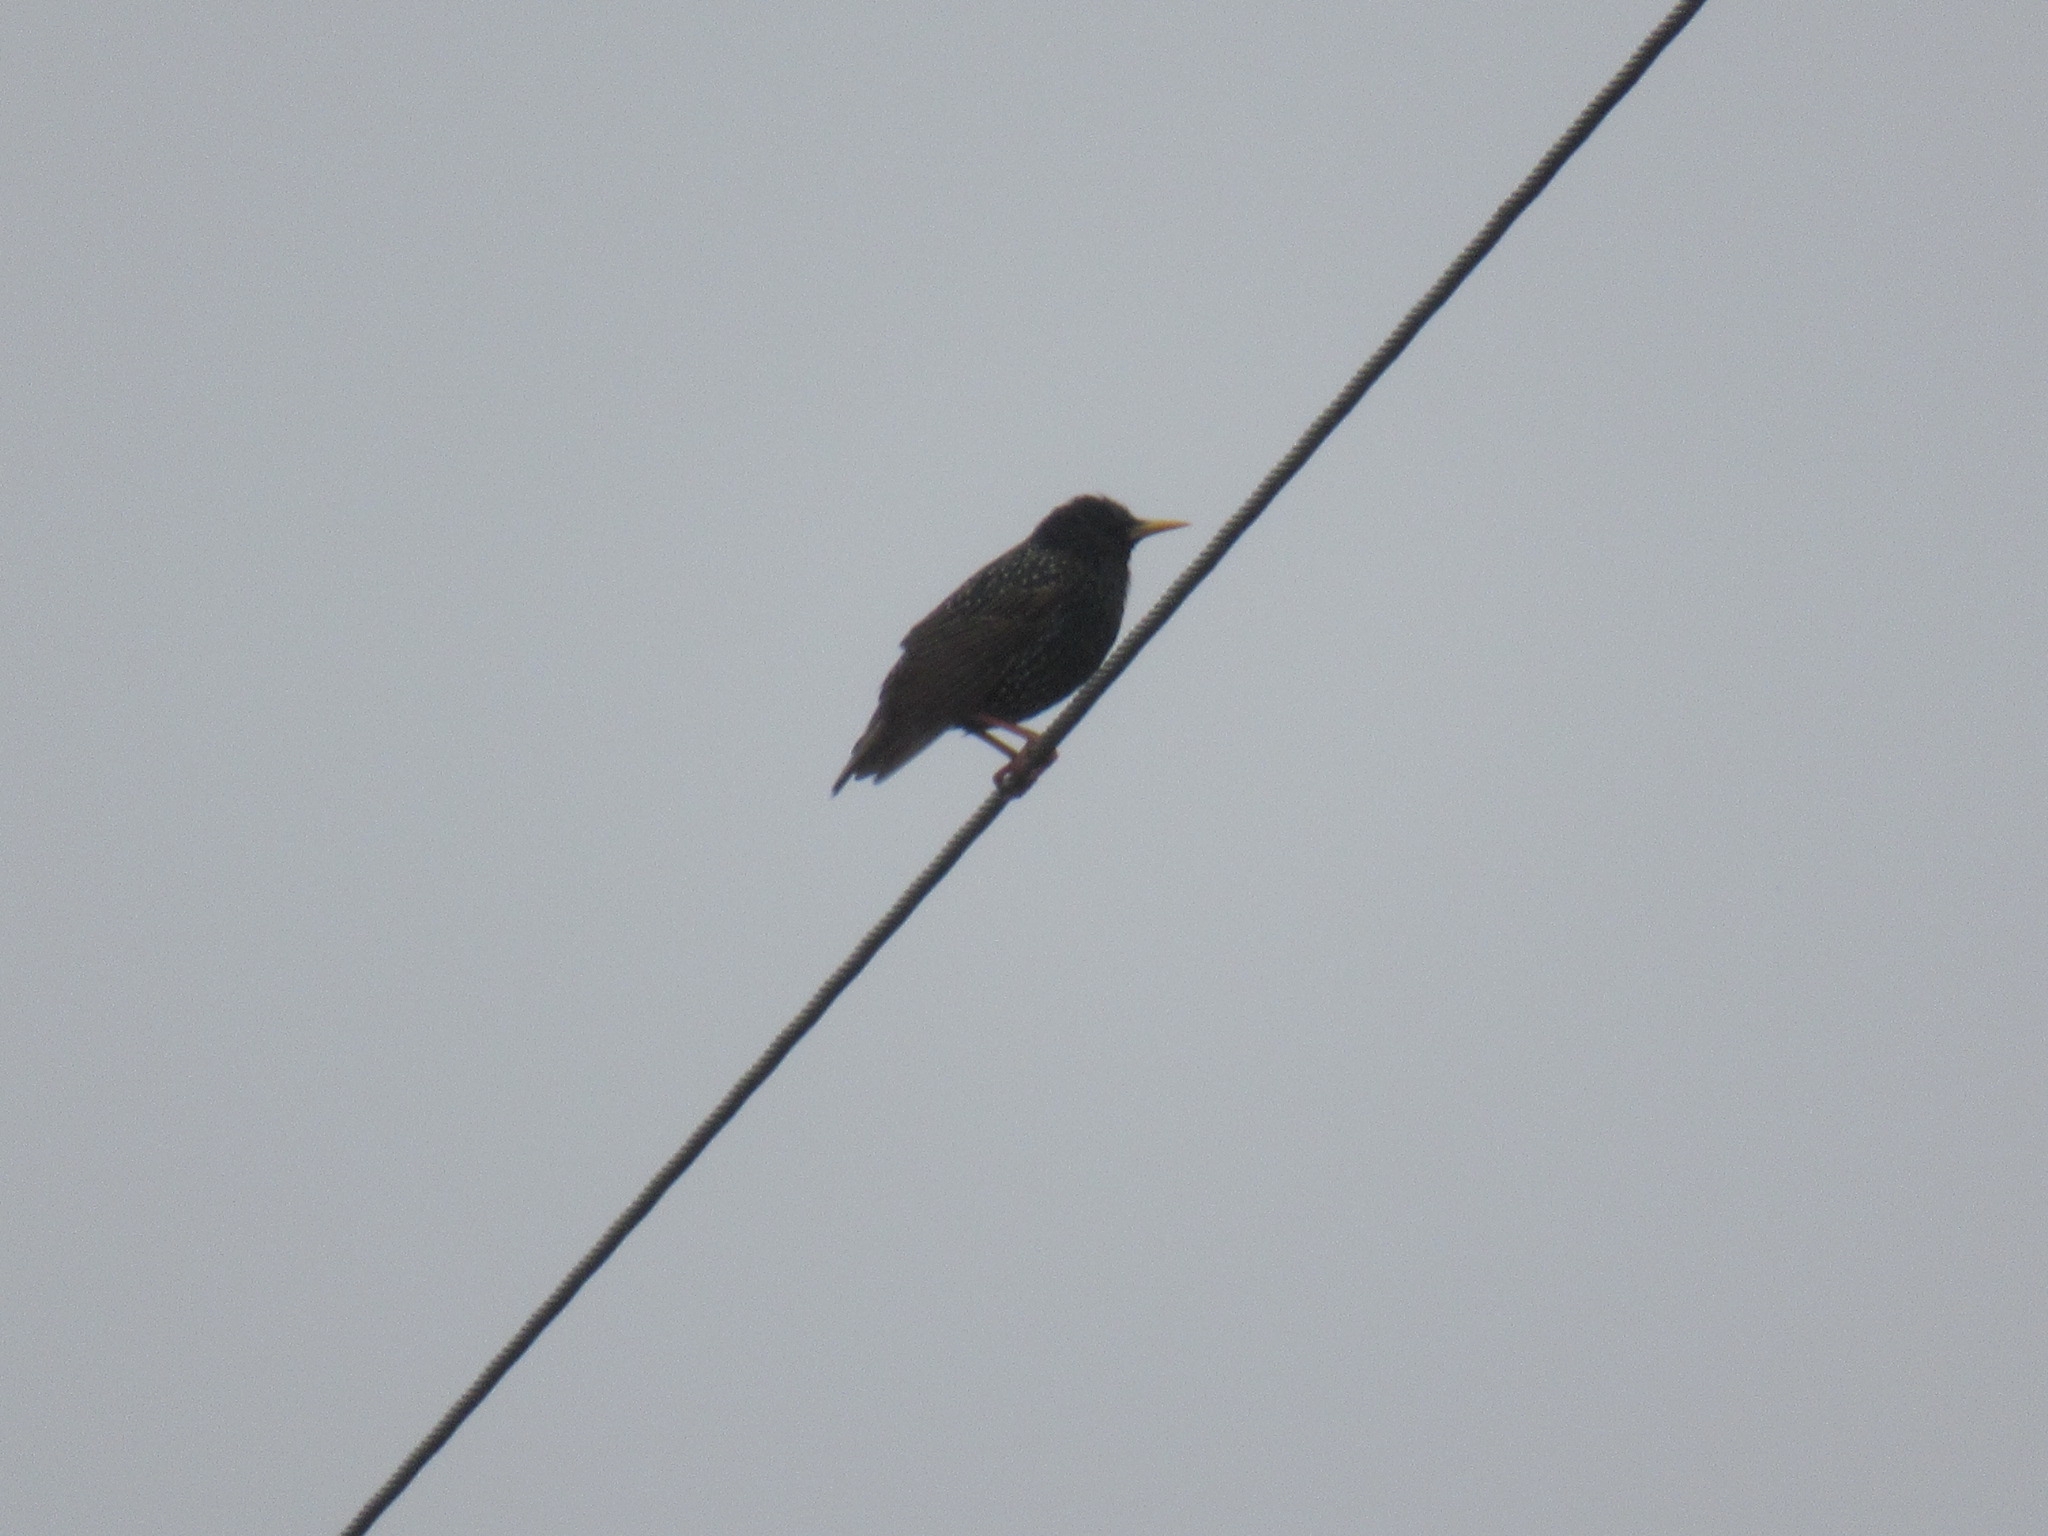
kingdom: Animalia
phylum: Chordata
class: Aves
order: Passeriformes
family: Sturnidae
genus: Sturnus
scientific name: Sturnus vulgaris
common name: Common starling
